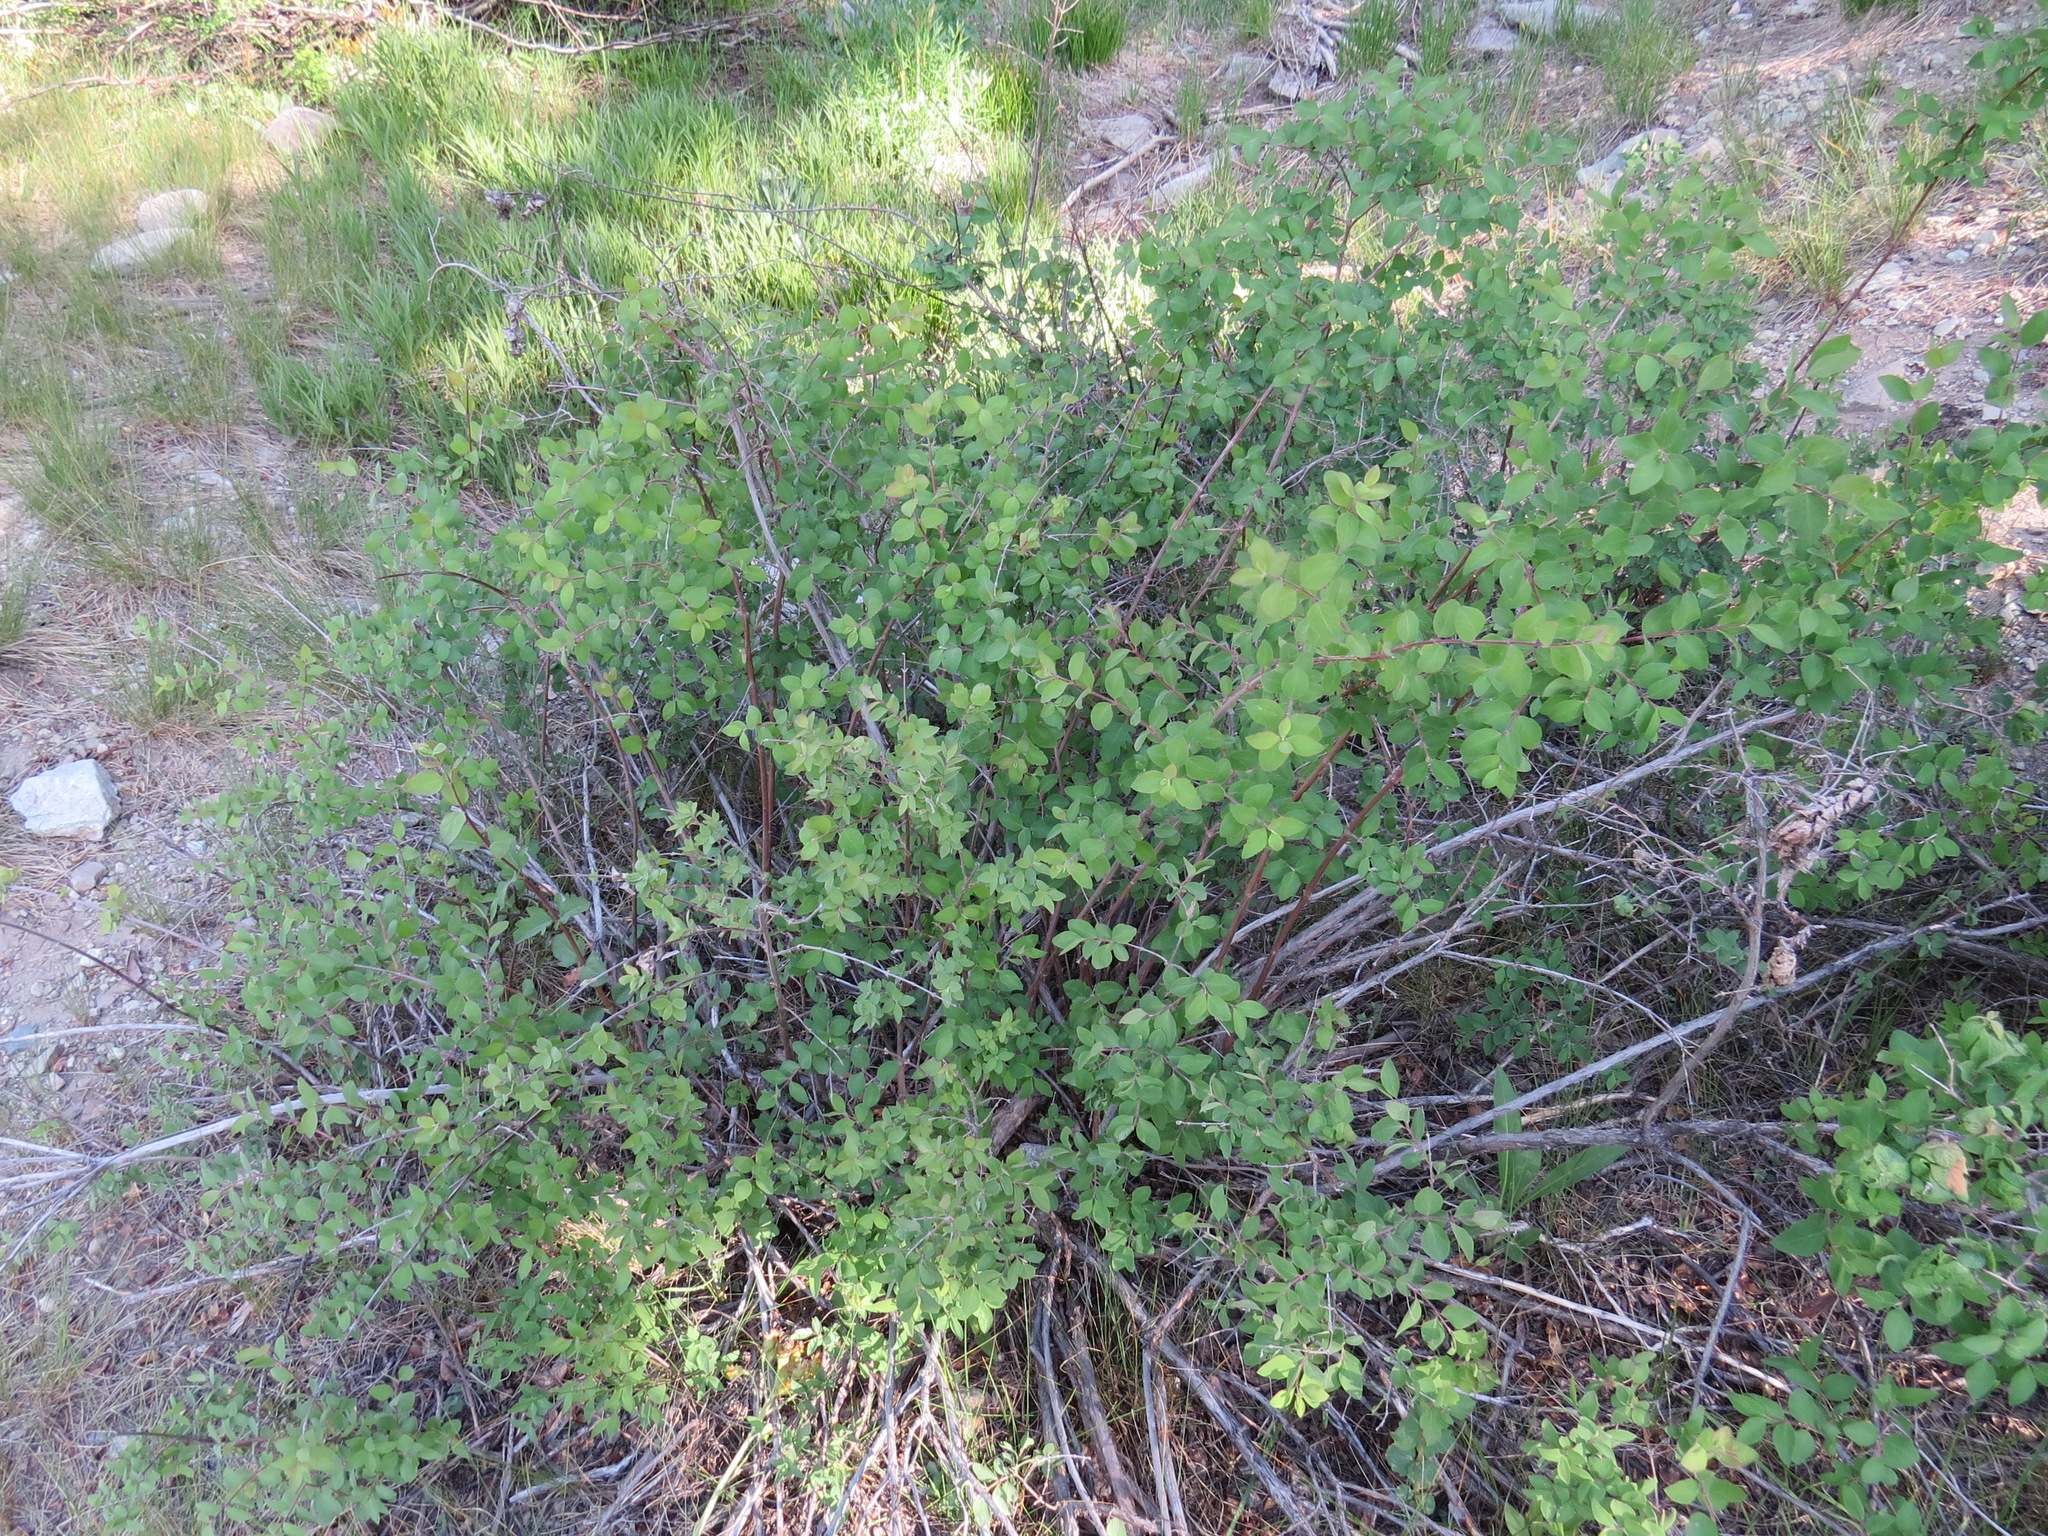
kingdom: Plantae
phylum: Tracheophyta
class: Magnoliopsida
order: Dipsacales
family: Caprifoliaceae
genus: Symphoricarpos
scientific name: Symphoricarpos rotundifolius
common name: Round-leaved snowberry
